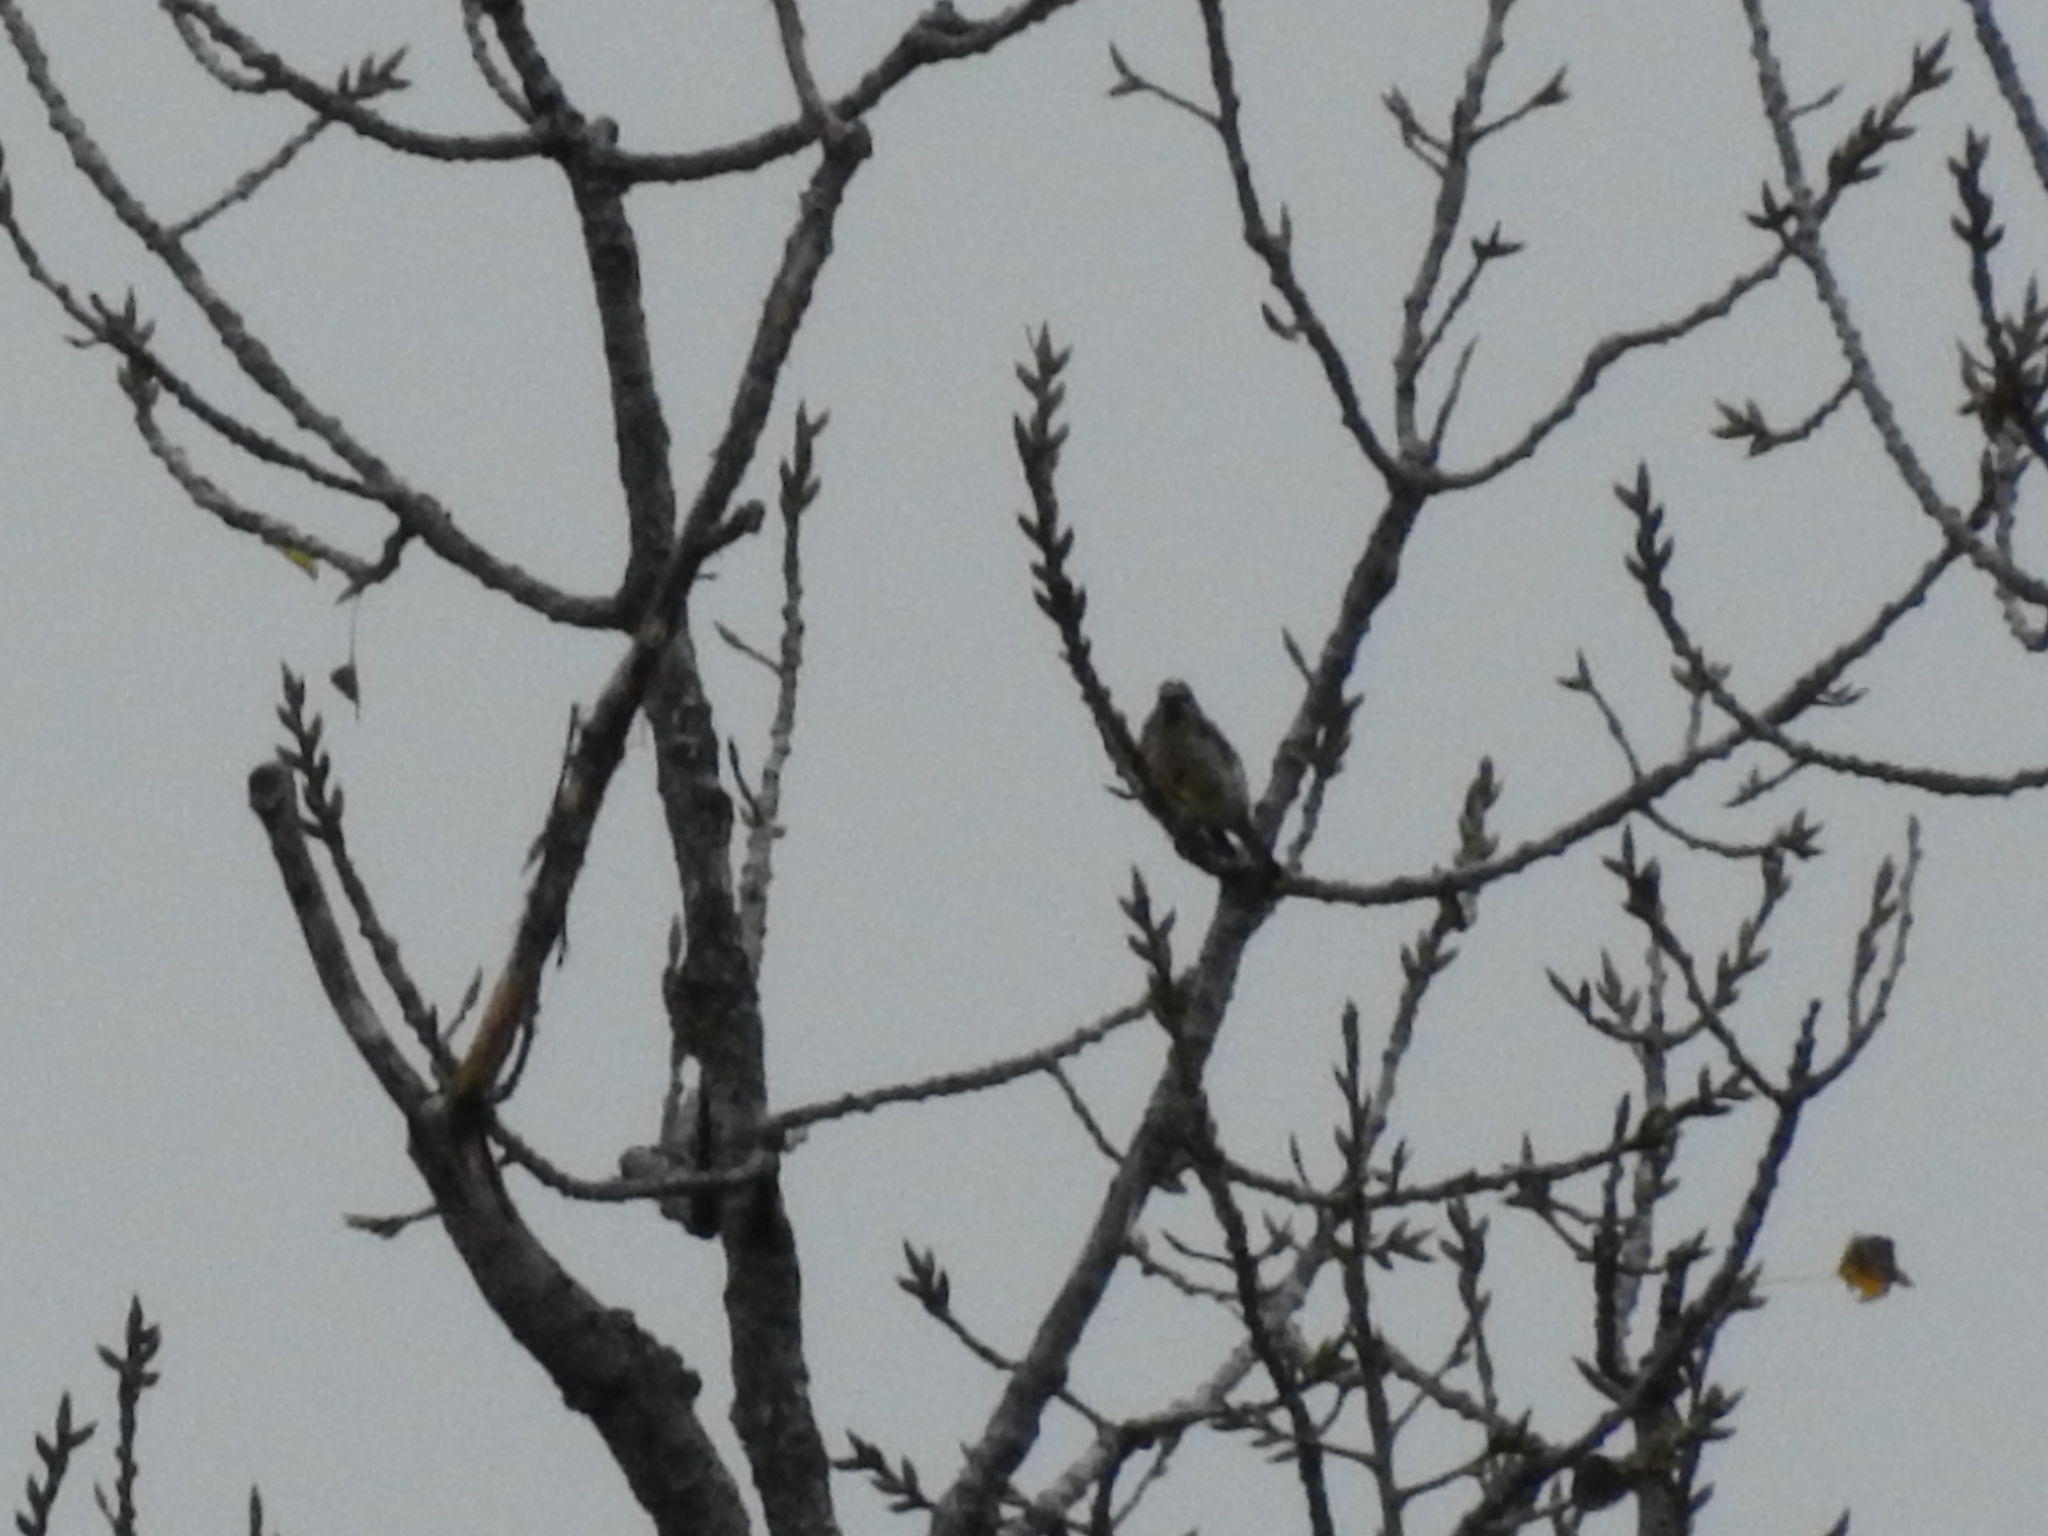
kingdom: Animalia
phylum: Chordata
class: Aves
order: Passeriformes
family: Bombycillidae
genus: Bombycilla
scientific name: Bombycilla cedrorum
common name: Cedar waxwing
